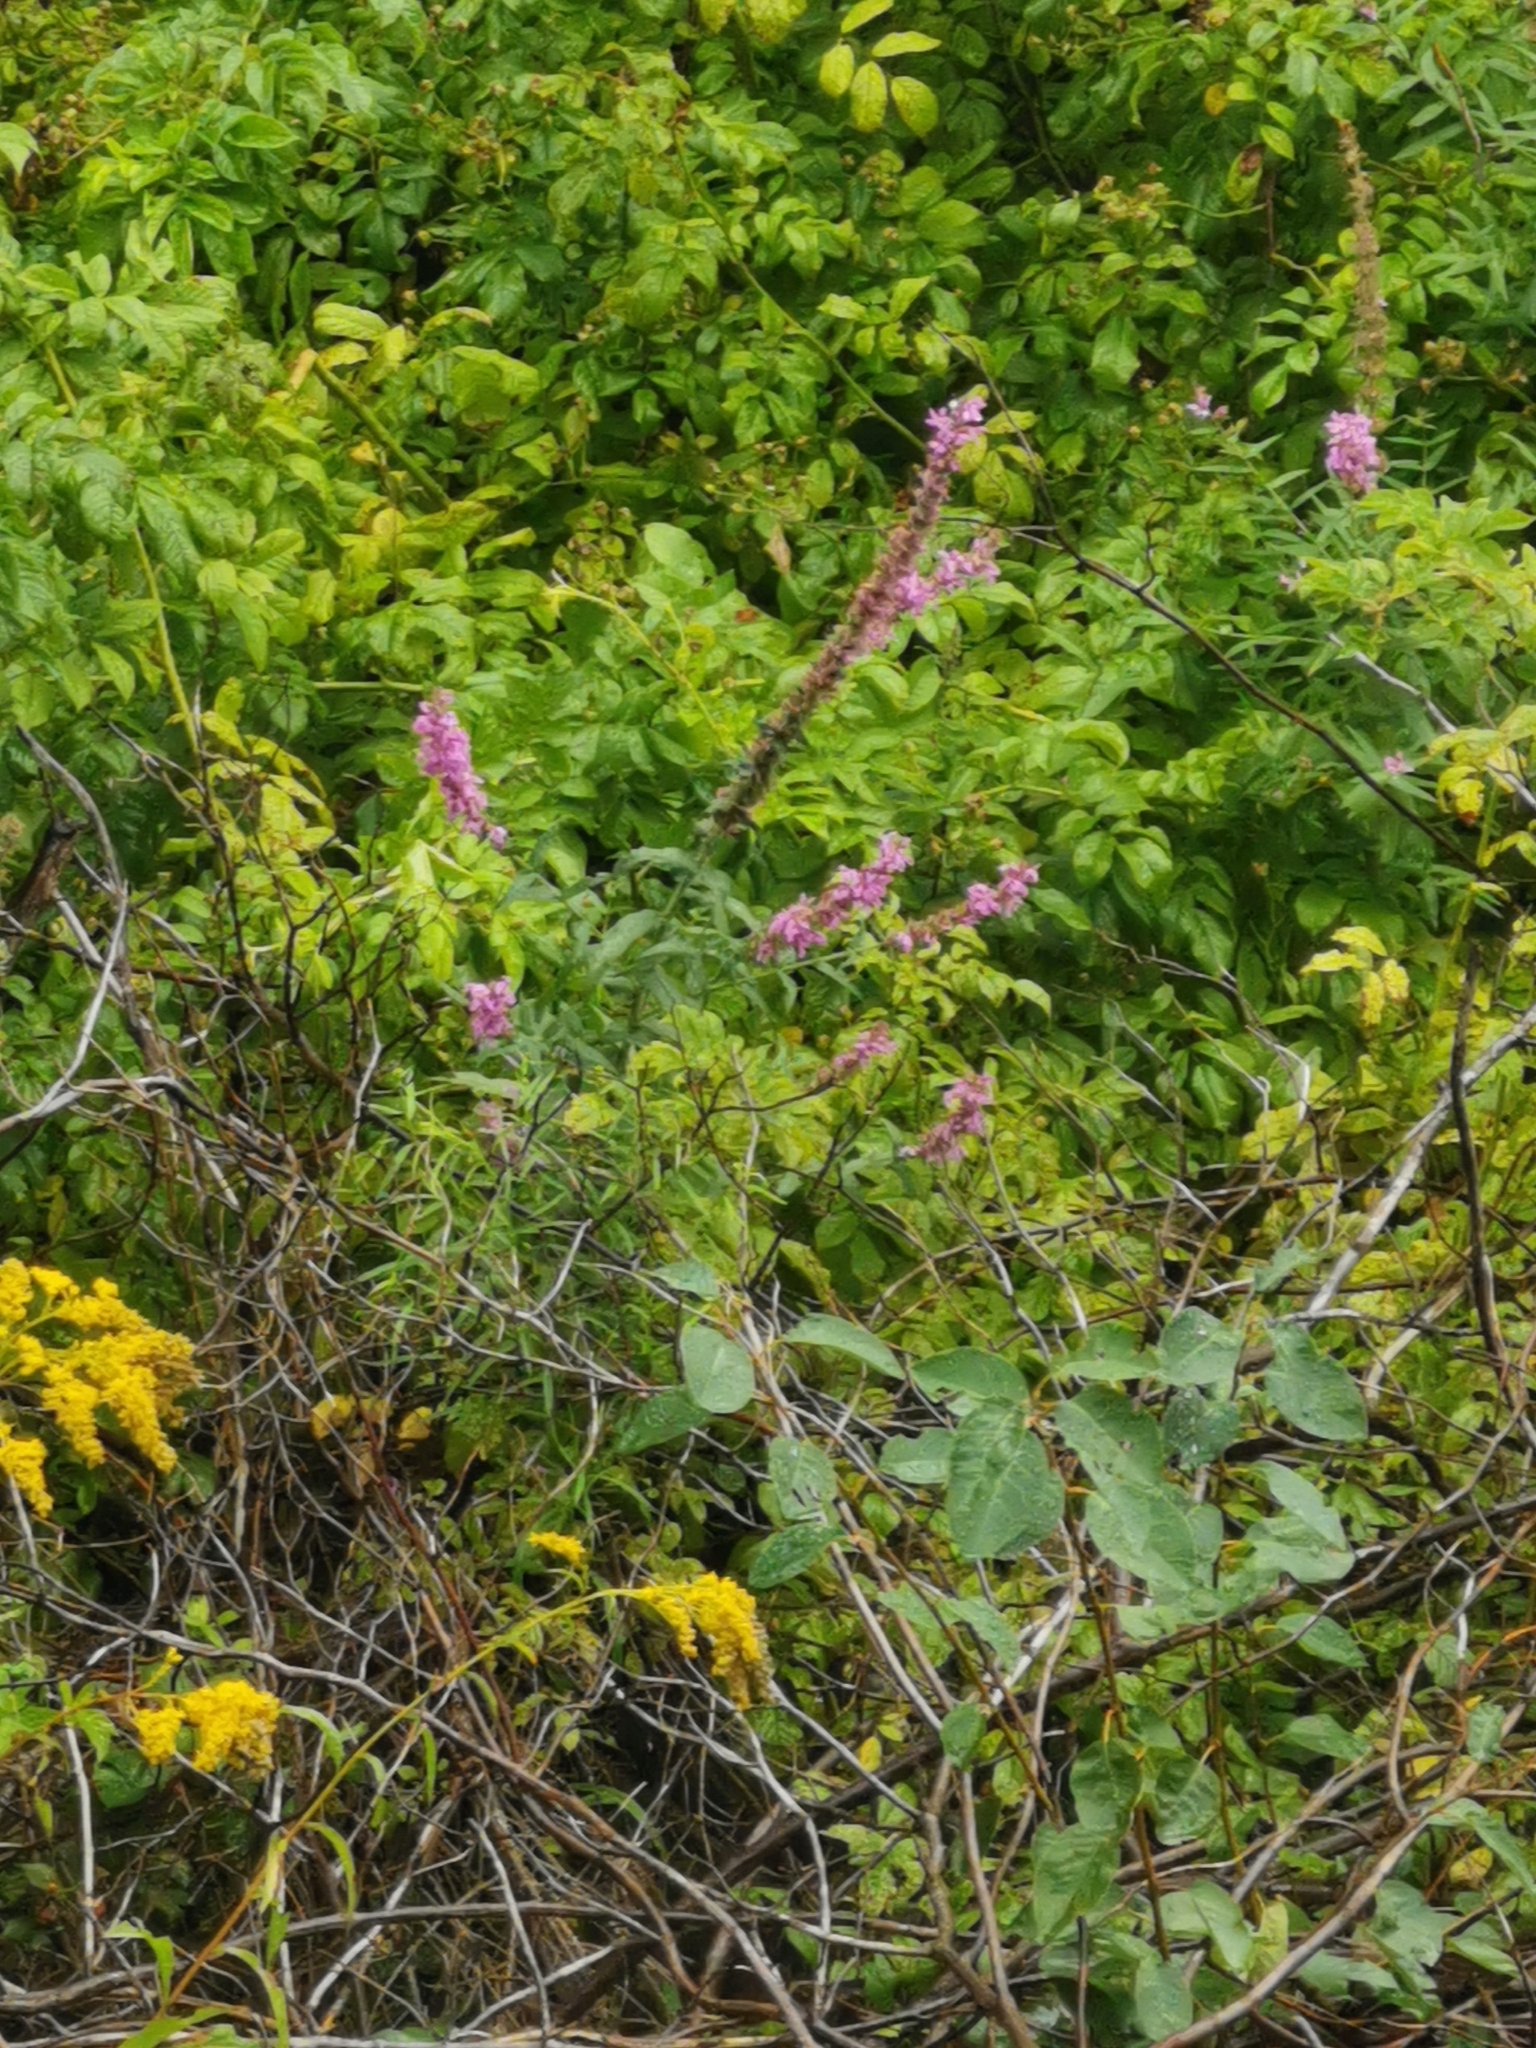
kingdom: Plantae
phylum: Tracheophyta
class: Magnoliopsida
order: Myrtales
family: Lythraceae
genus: Lythrum
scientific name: Lythrum salicaria
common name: Purple loosestrife
